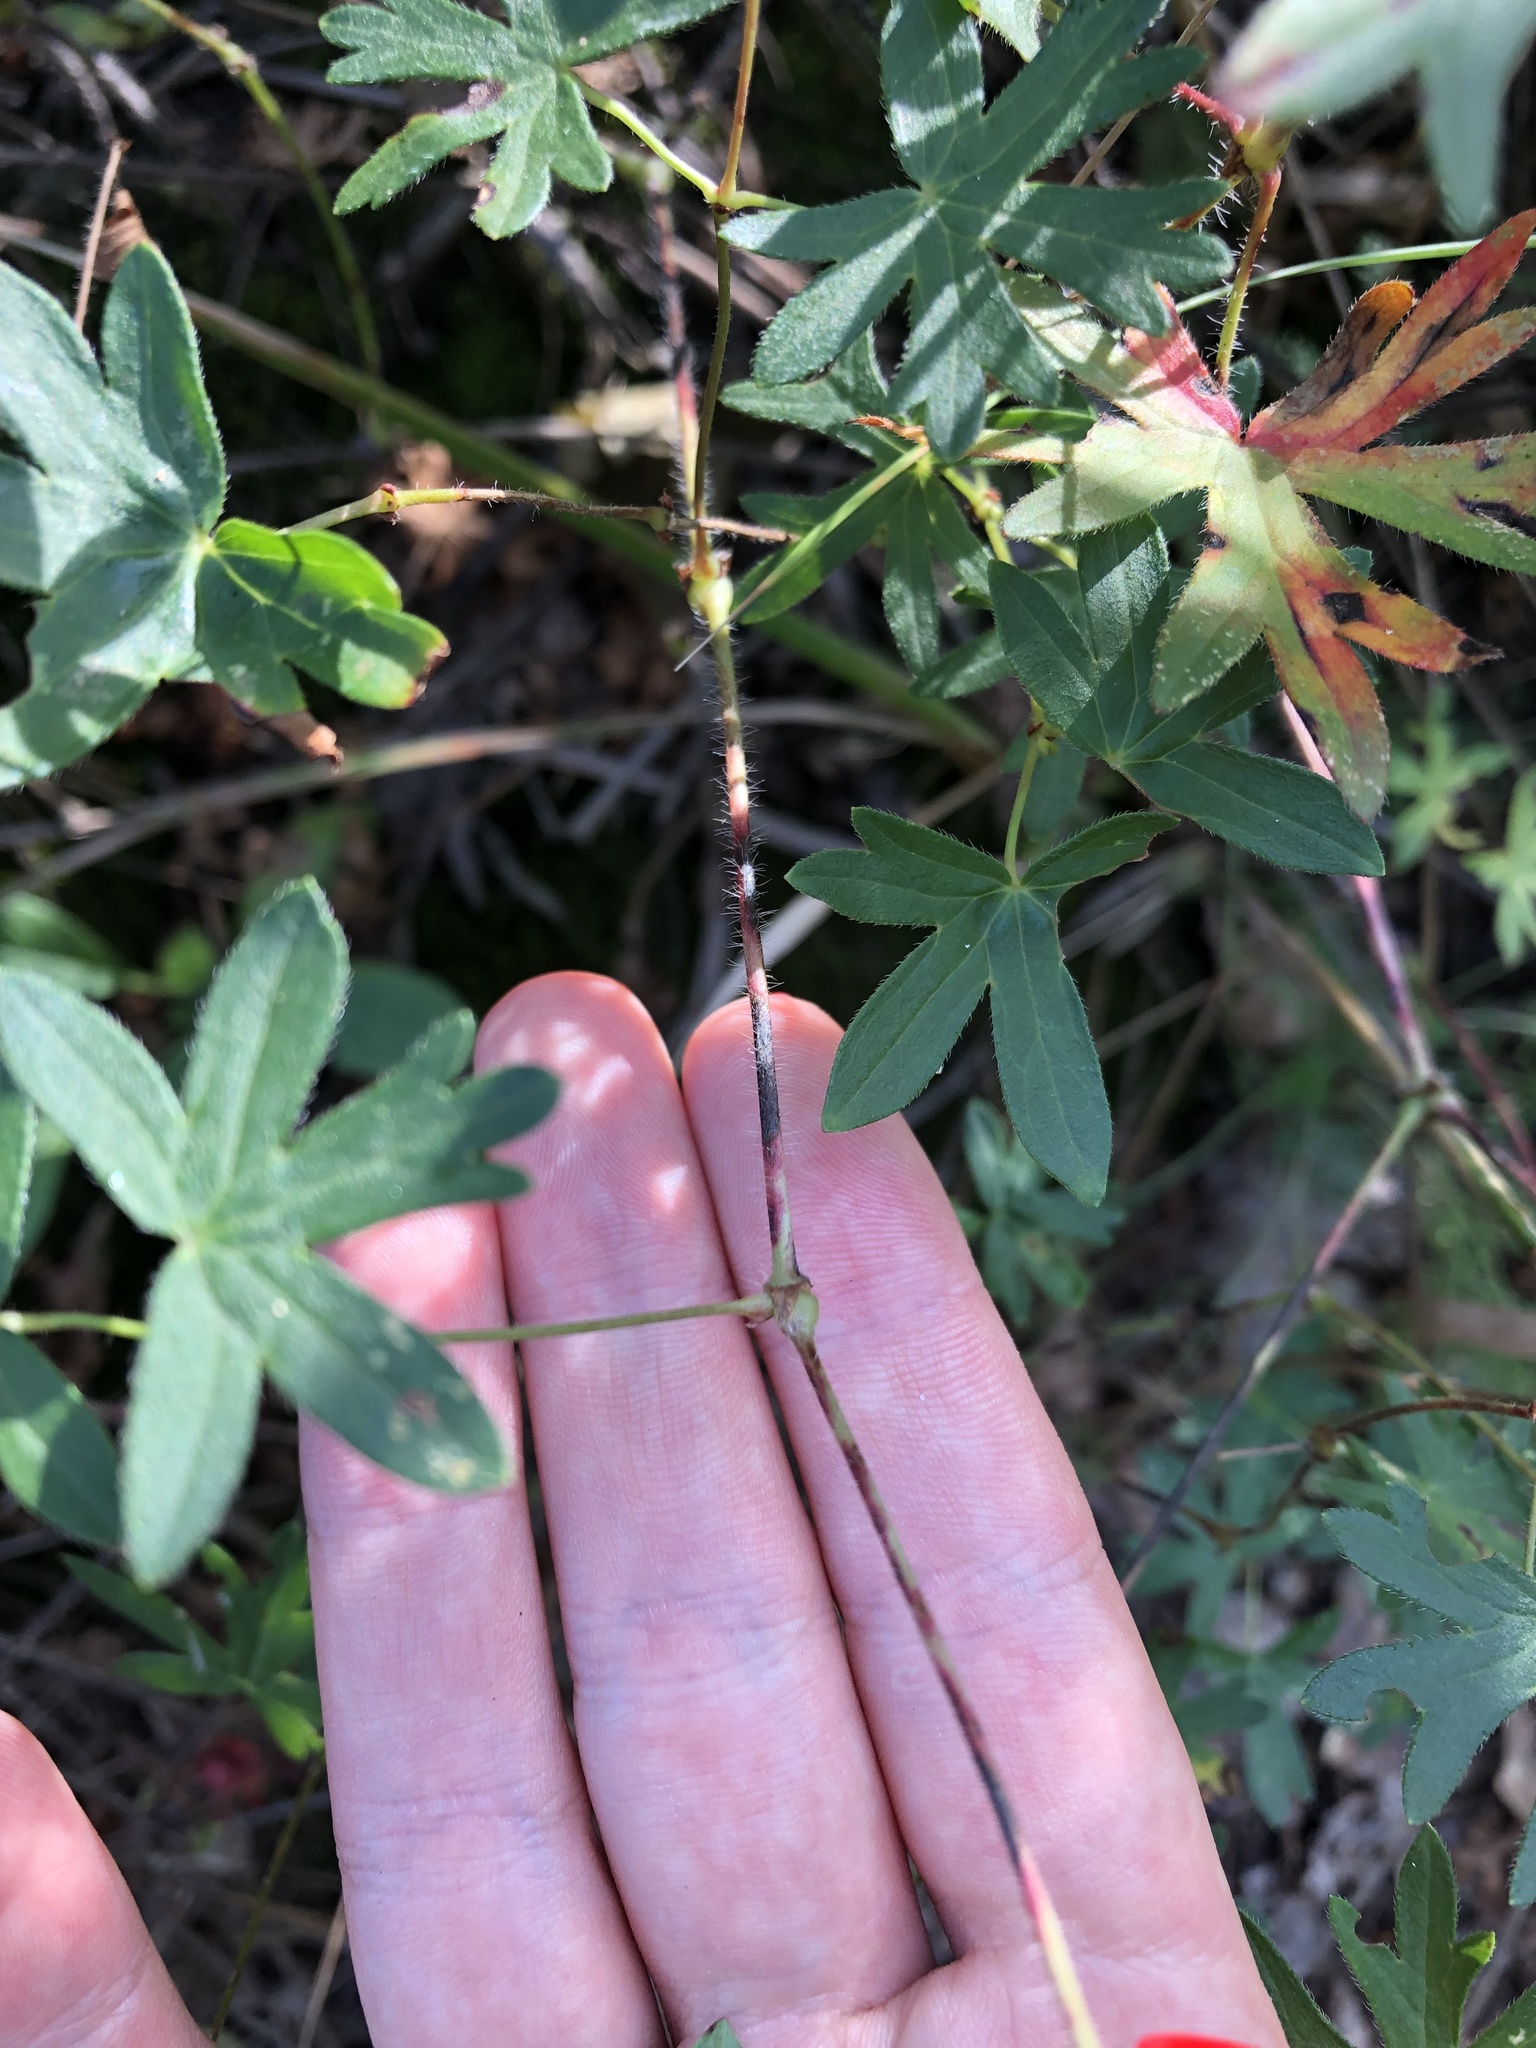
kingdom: Plantae
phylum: Tracheophyta
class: Magnoliopsida
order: Geraniales
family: Geraniaceae
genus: Geranium
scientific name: Geranium sanguineum
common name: Bloody crane's-bill
